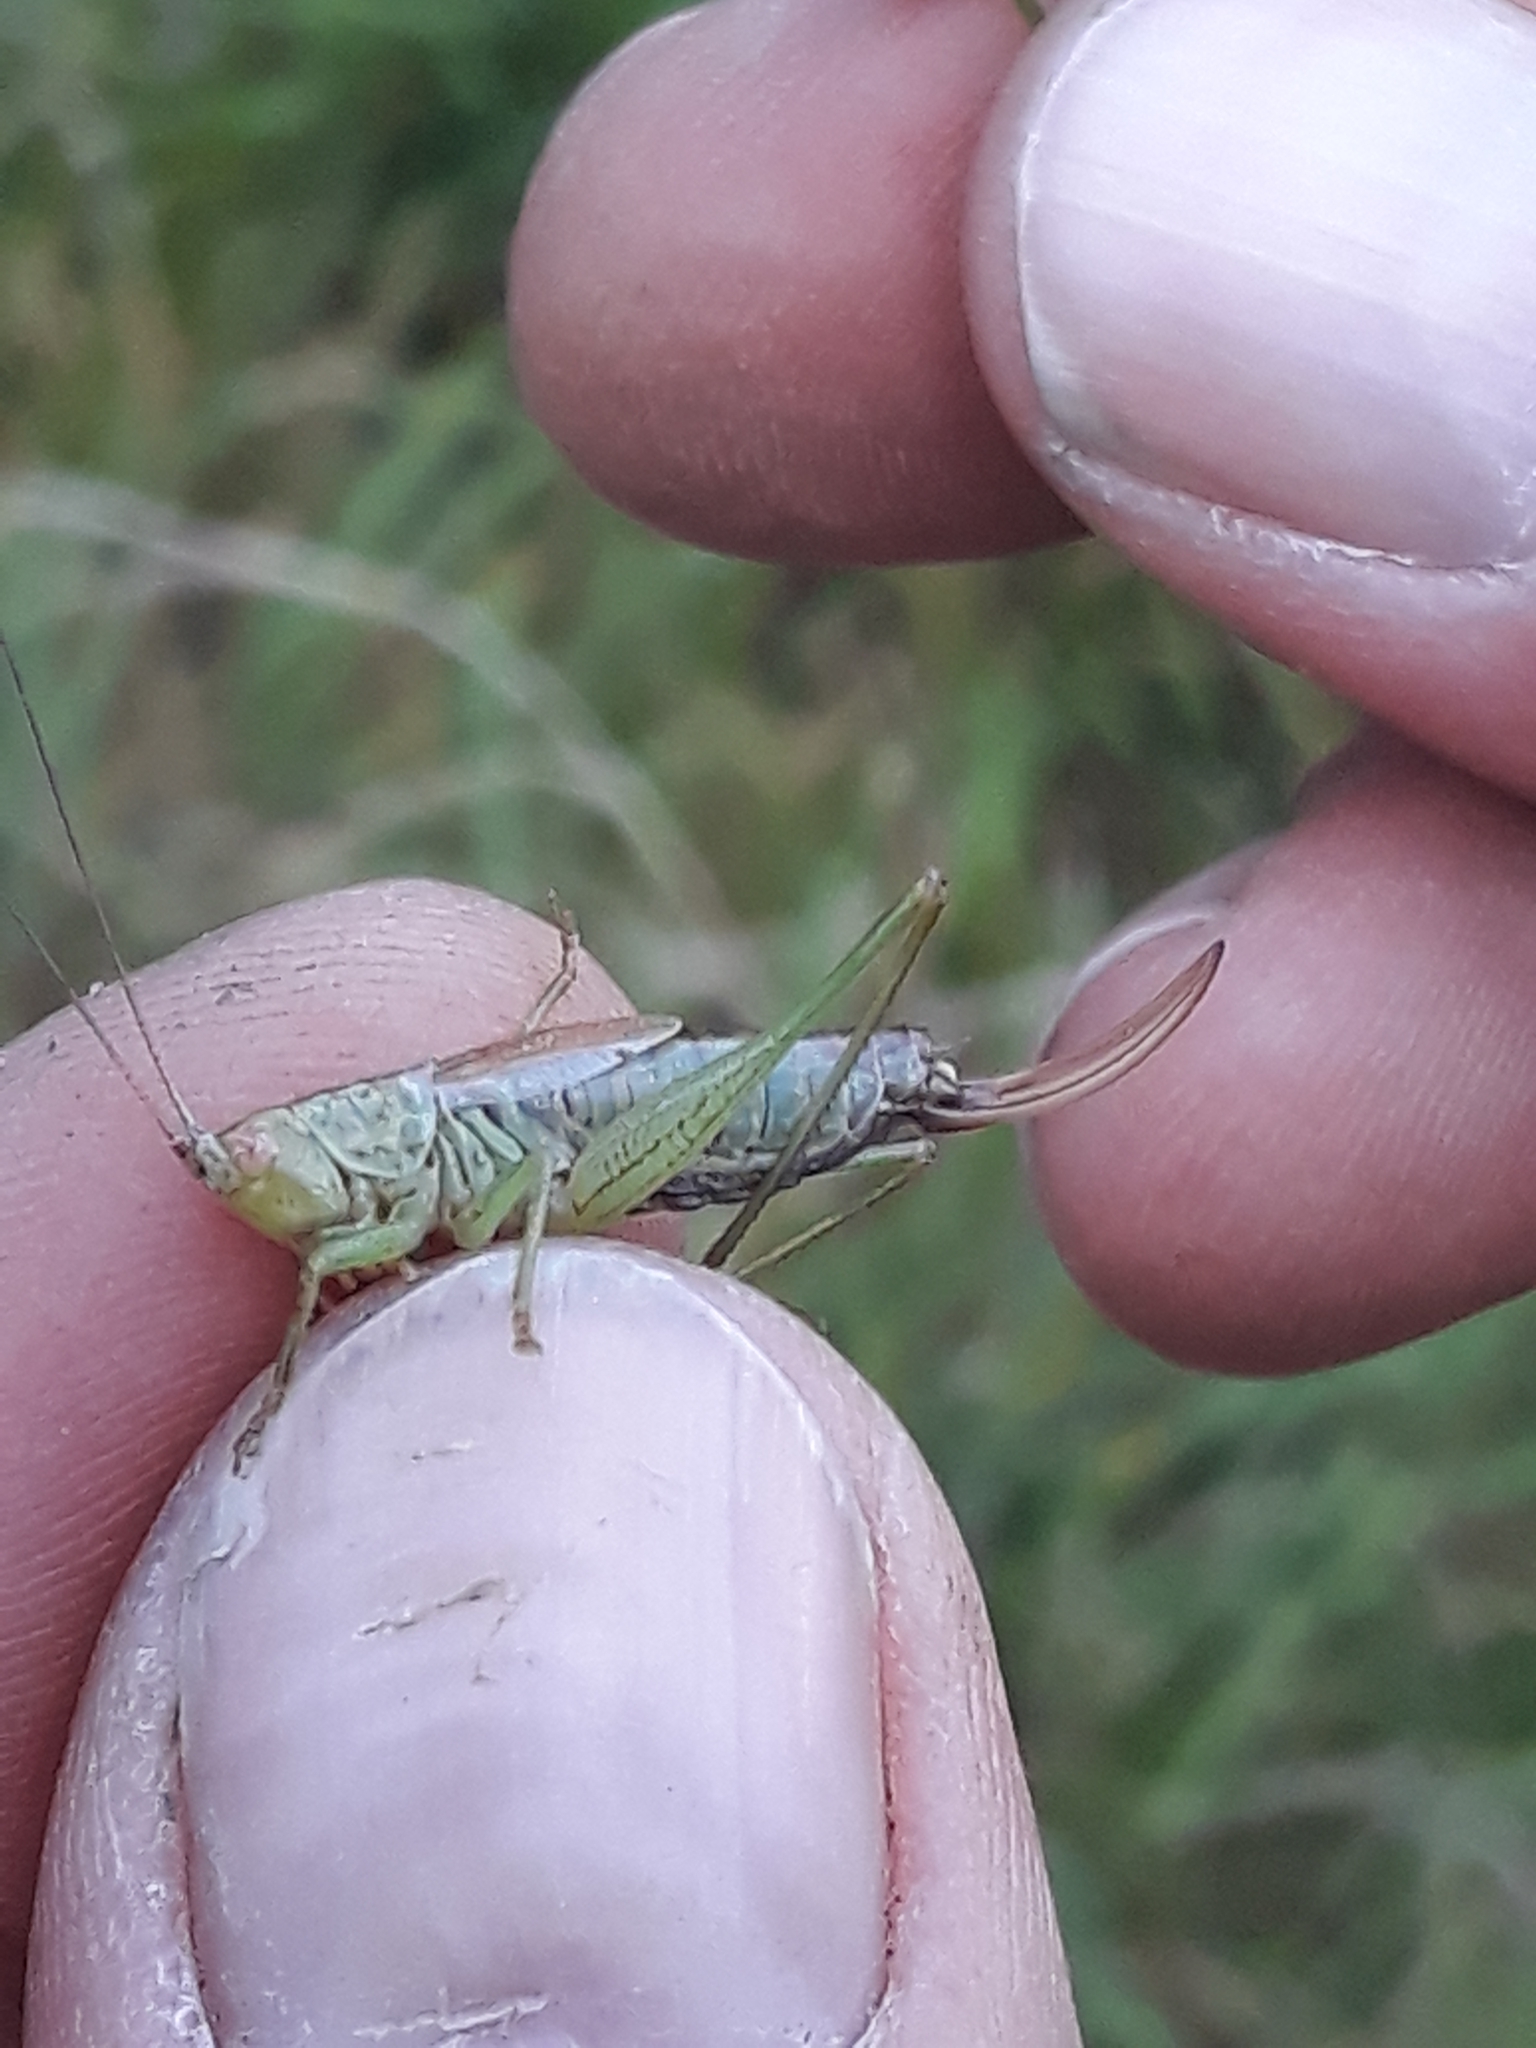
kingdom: Animalia
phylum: Arthropoda
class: Insecta
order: Orthoptera
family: Tettigoniidae
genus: Conocephalus
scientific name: Conocephalus dorsalis
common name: Short-winged conehead
